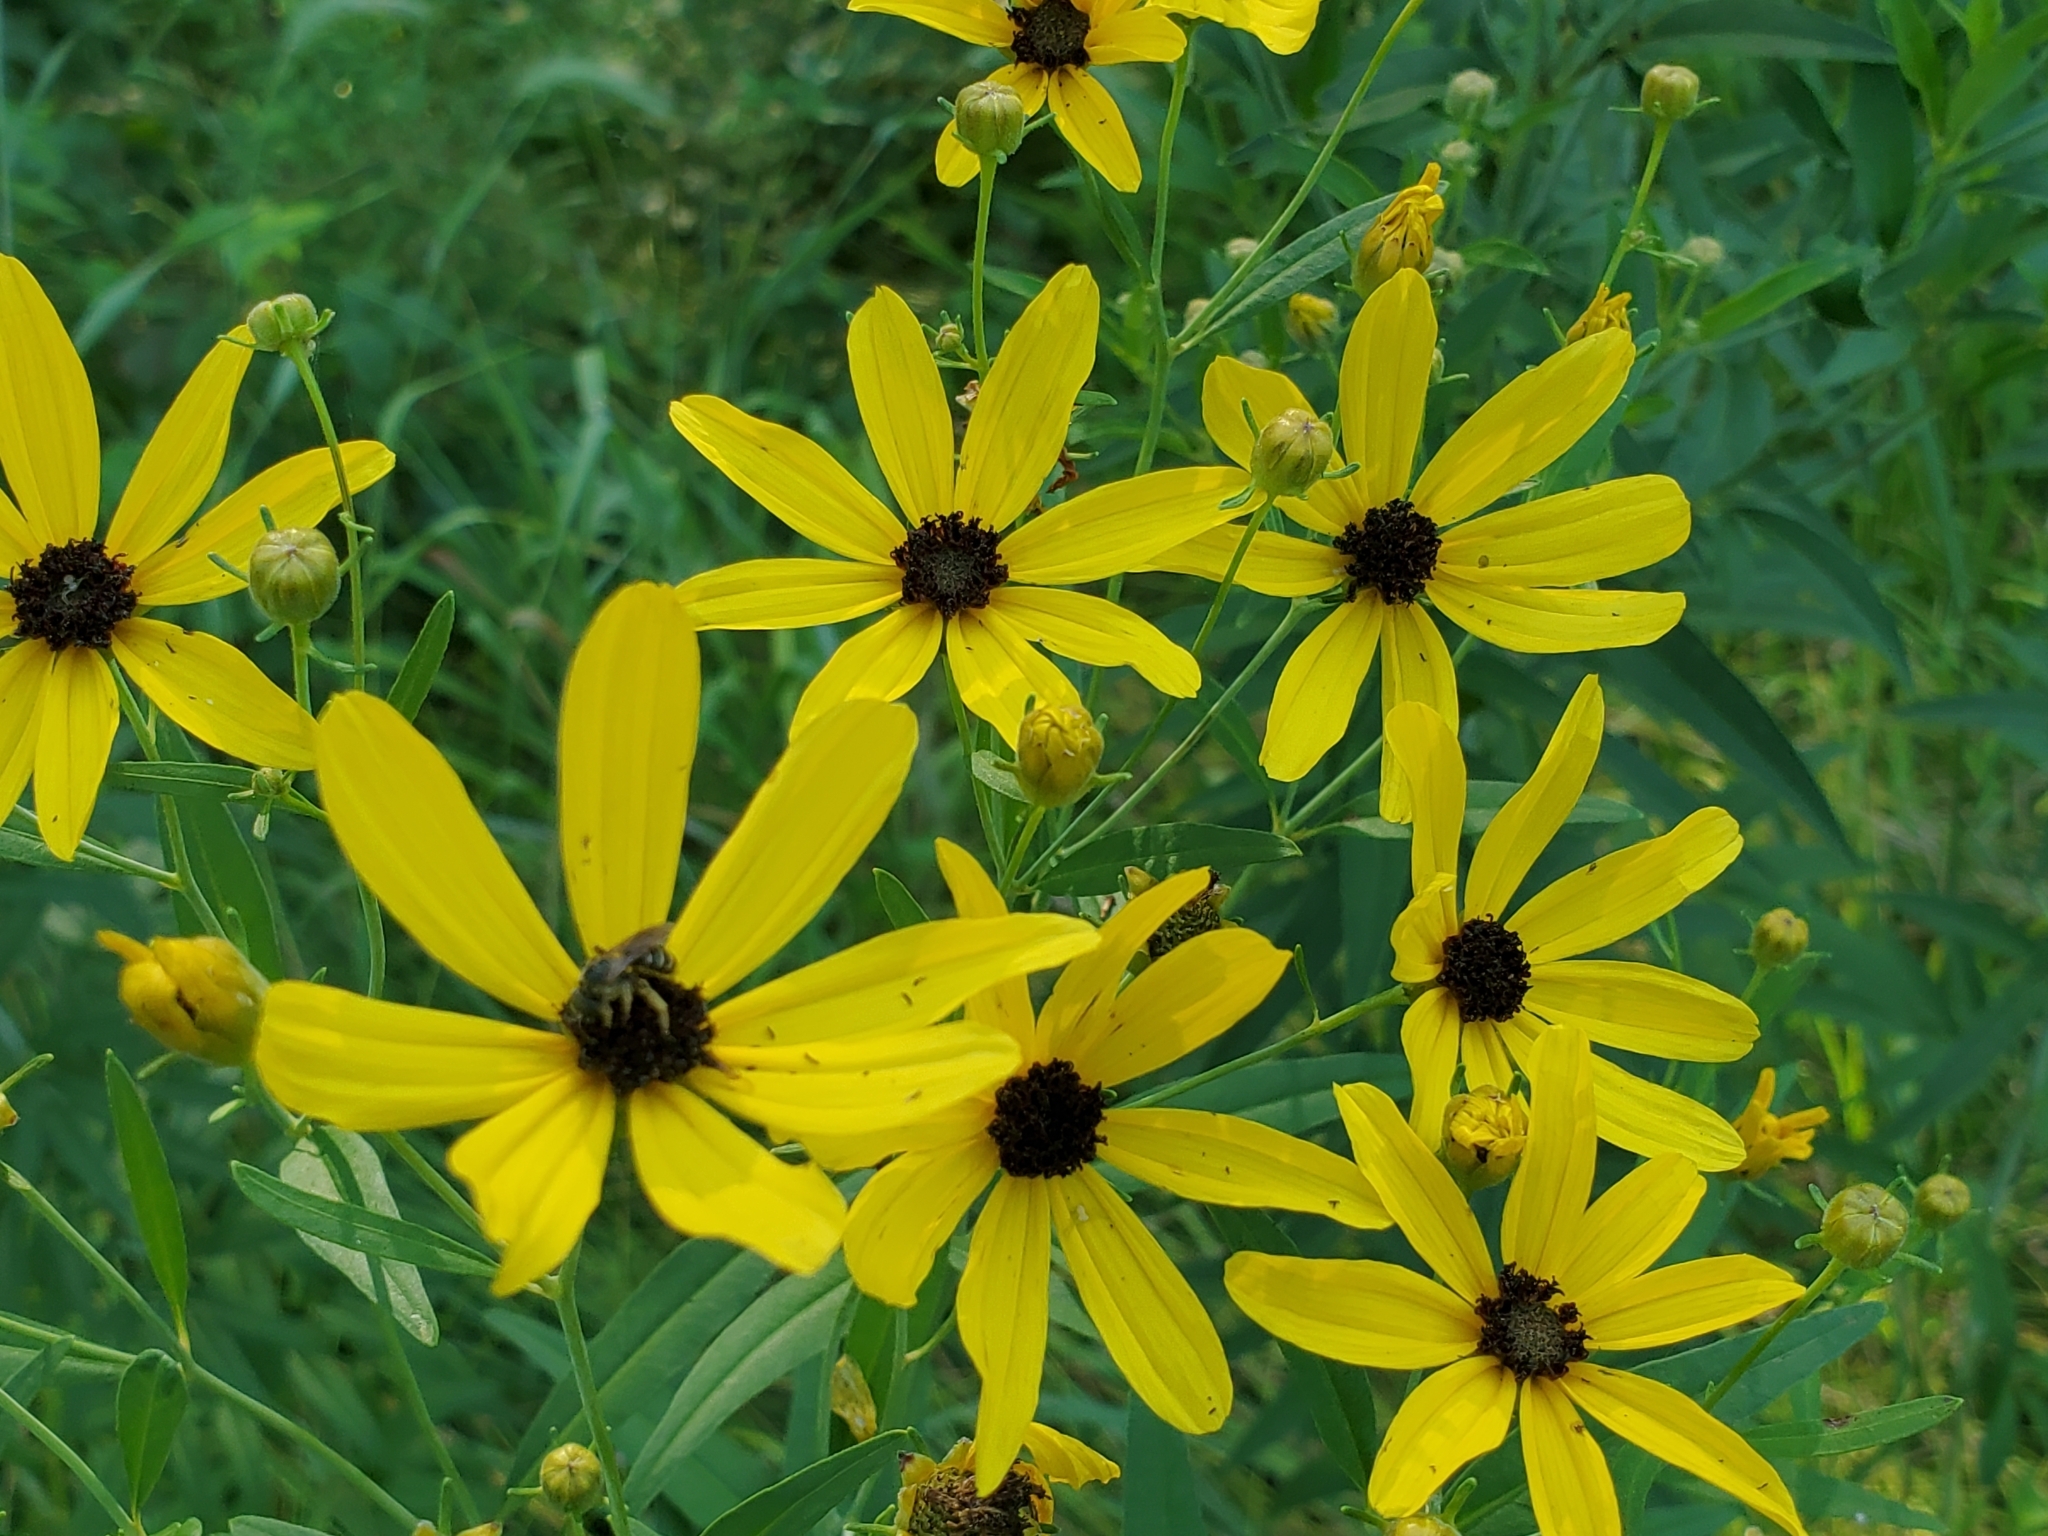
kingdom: Plantae
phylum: Tracheophyta
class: Magnoliopsida
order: Asterales
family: Asteraceae
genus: Coreopsis
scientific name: Coreopsis tripteris
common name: Tall coreopsis
